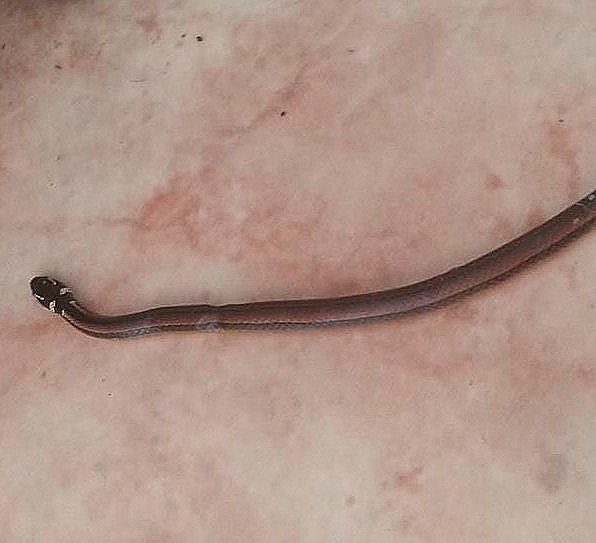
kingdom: Animalia
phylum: Chordata
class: Squamata
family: Colubridae
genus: Coniophanes
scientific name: Coniophanes meridanus
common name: Peninsula stripeless snake
